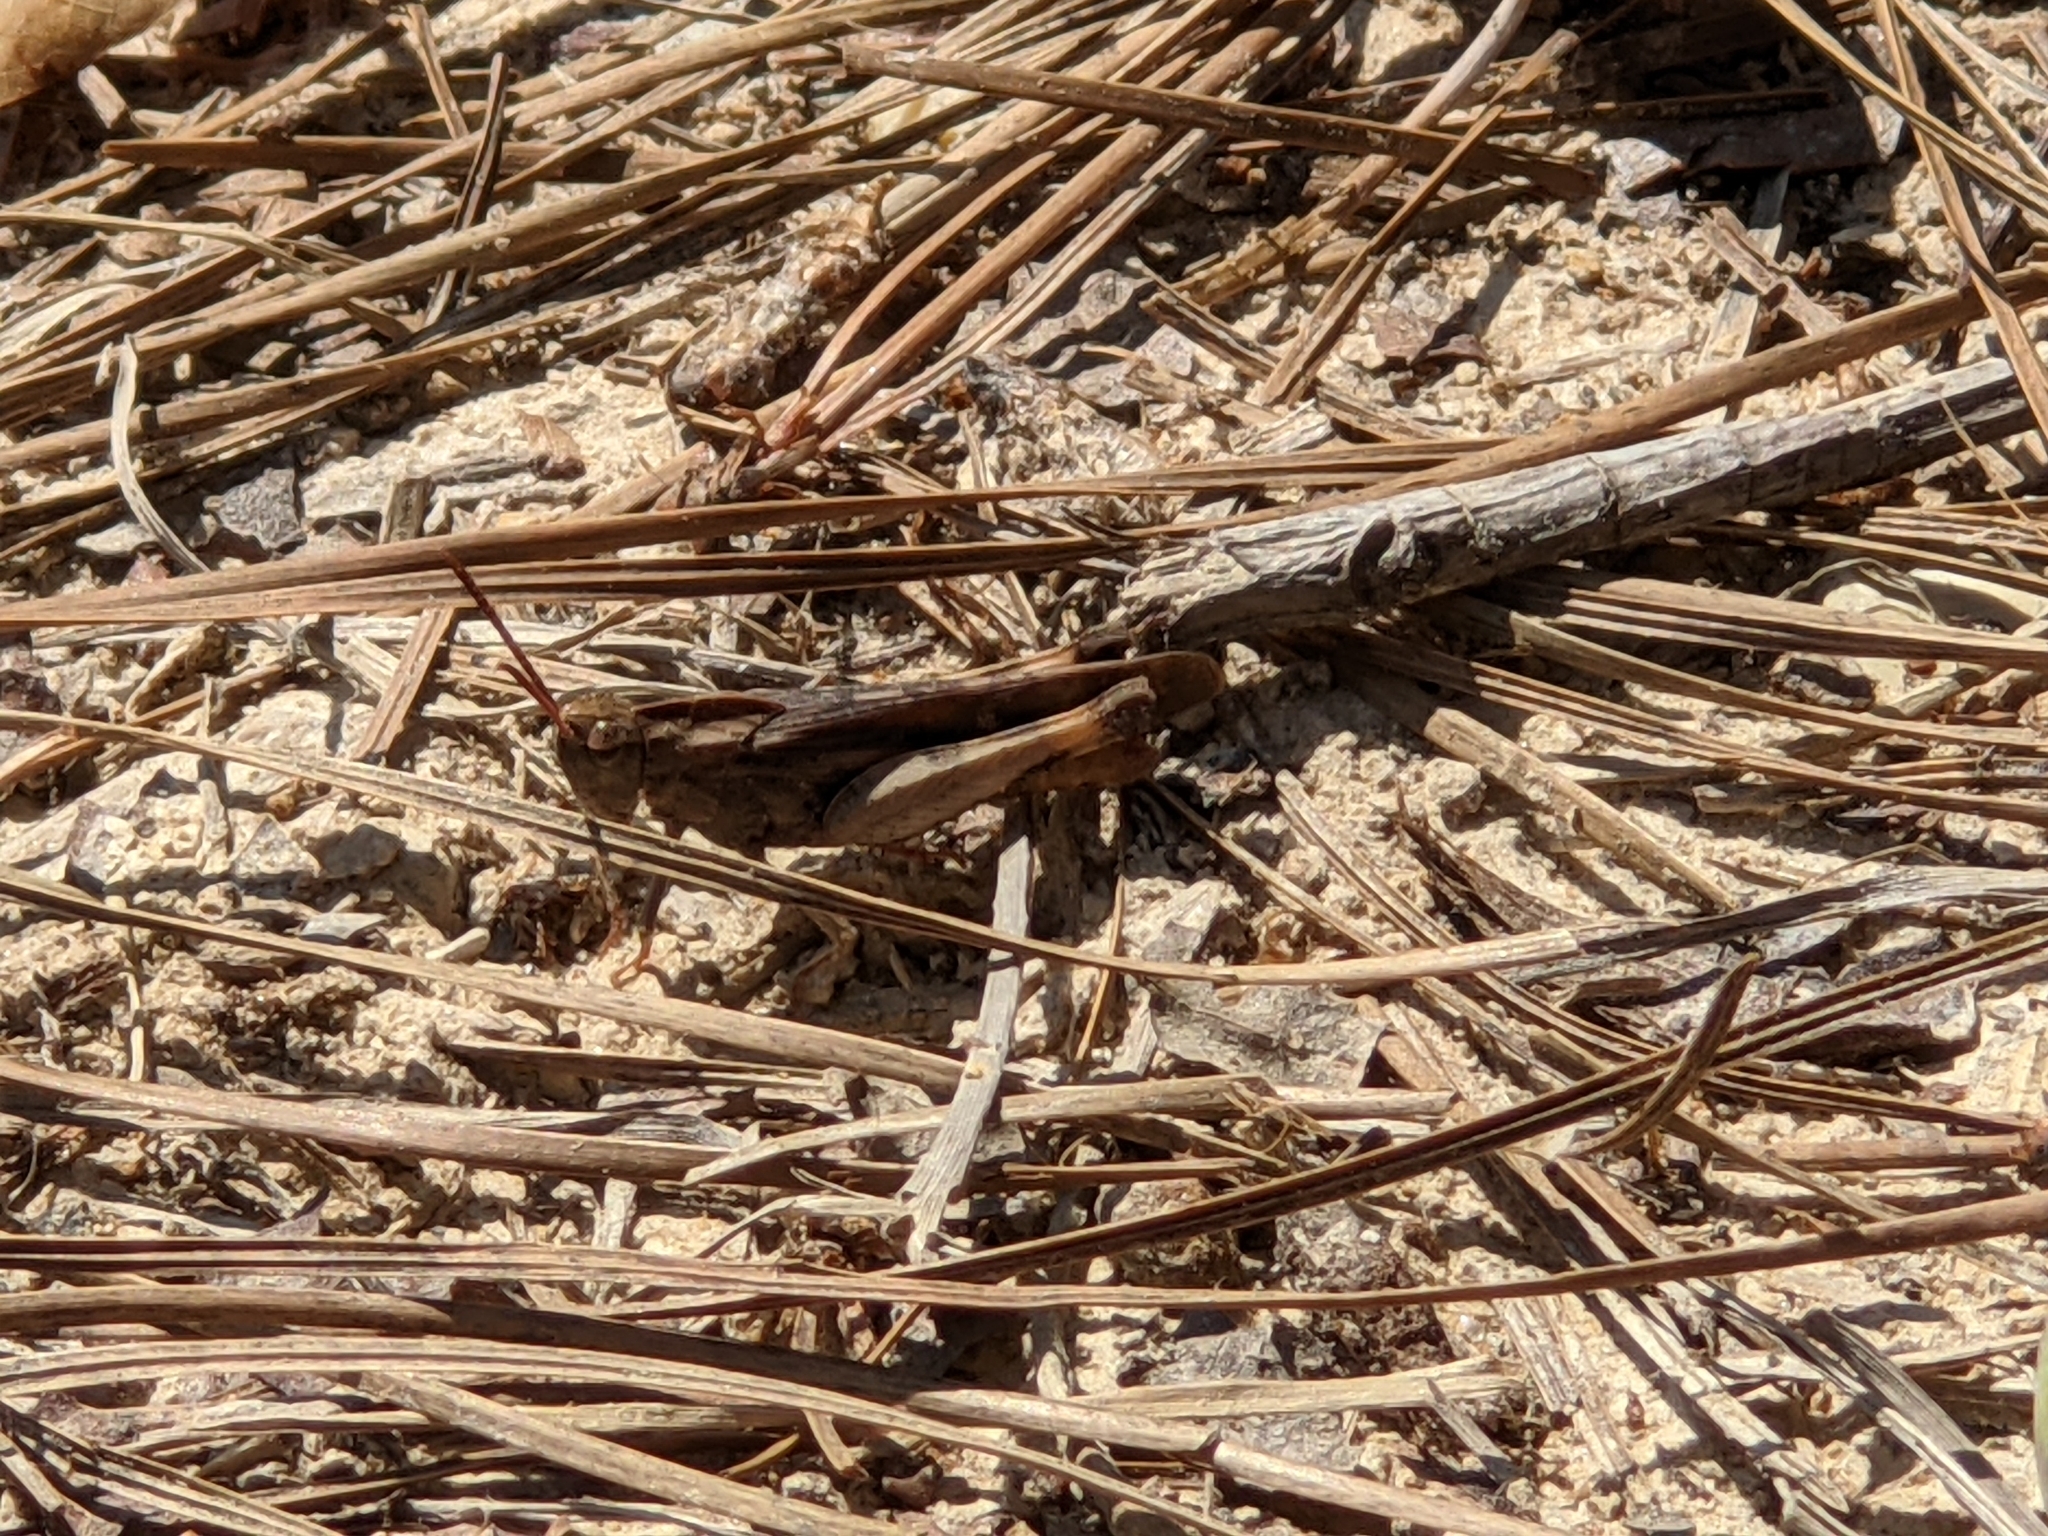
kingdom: Animalia
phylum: Arthropoda
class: Insecta
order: Orthoptera
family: Acrididae
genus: Chortophaga
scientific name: Chortophaga viridifasciata
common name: Green-striped grasshopper
